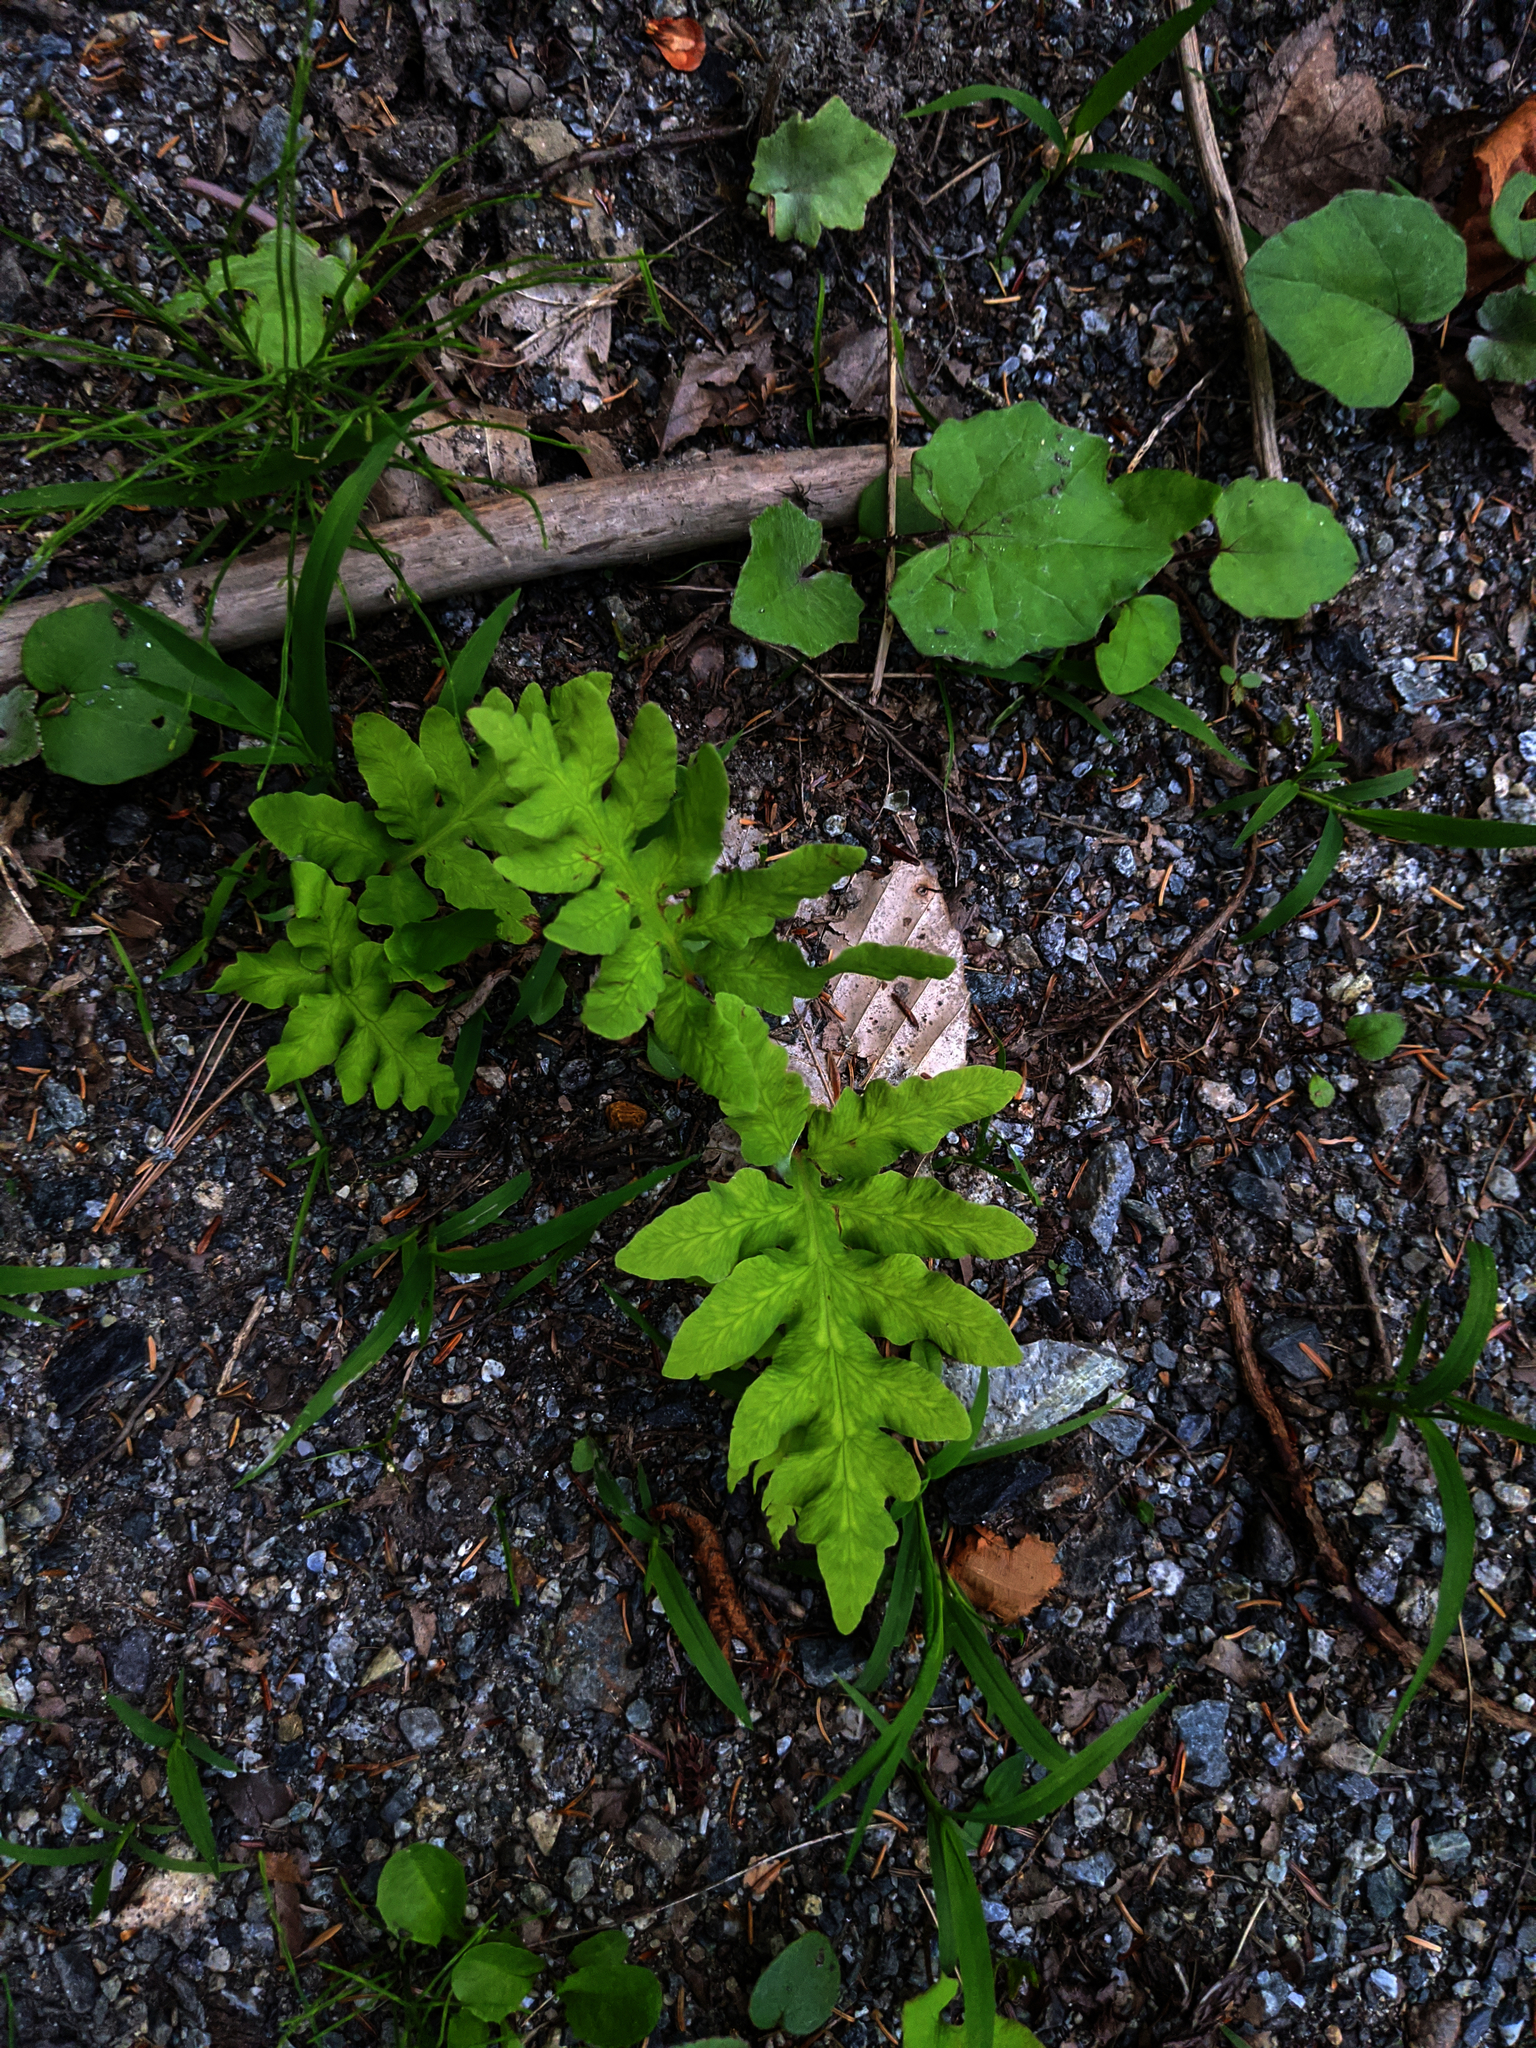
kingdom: Plantae
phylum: Tracheophyta
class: Polypodiopsida
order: Polypodiales
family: Onocleaceae
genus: Onoclea
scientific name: Onoclea sensibilis
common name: Sensitive fern
